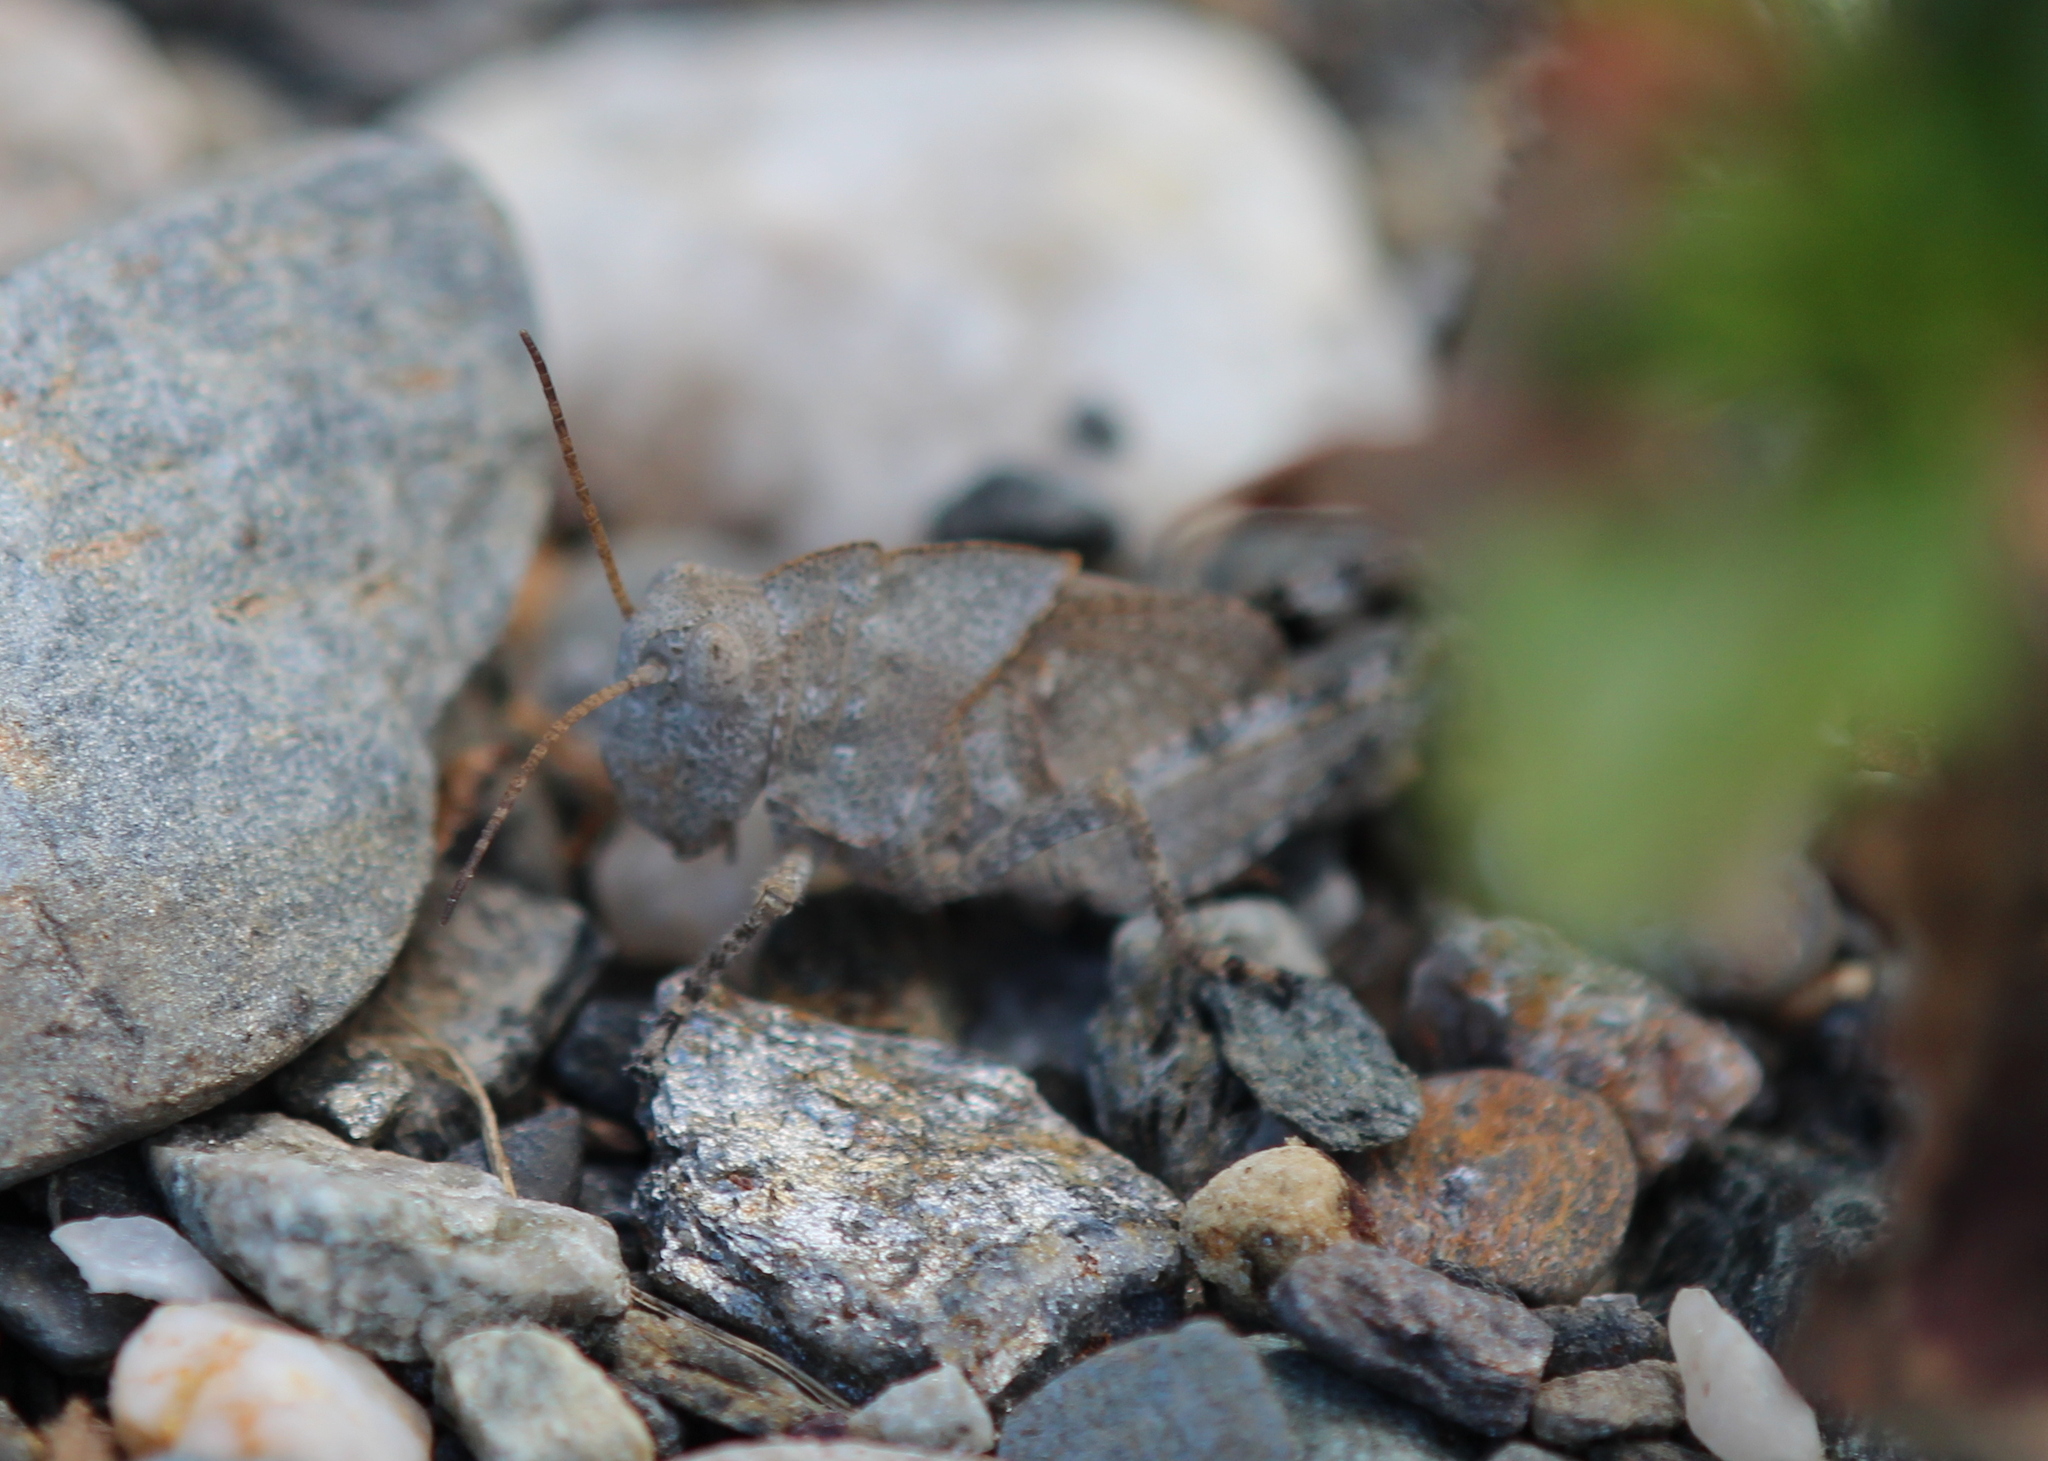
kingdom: Animalia
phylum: Arthropoda
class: Insecta
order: Orthoptera
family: Acrididae
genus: Dissosteira
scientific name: Dissosteira carolina
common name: Carolina grasshopper
